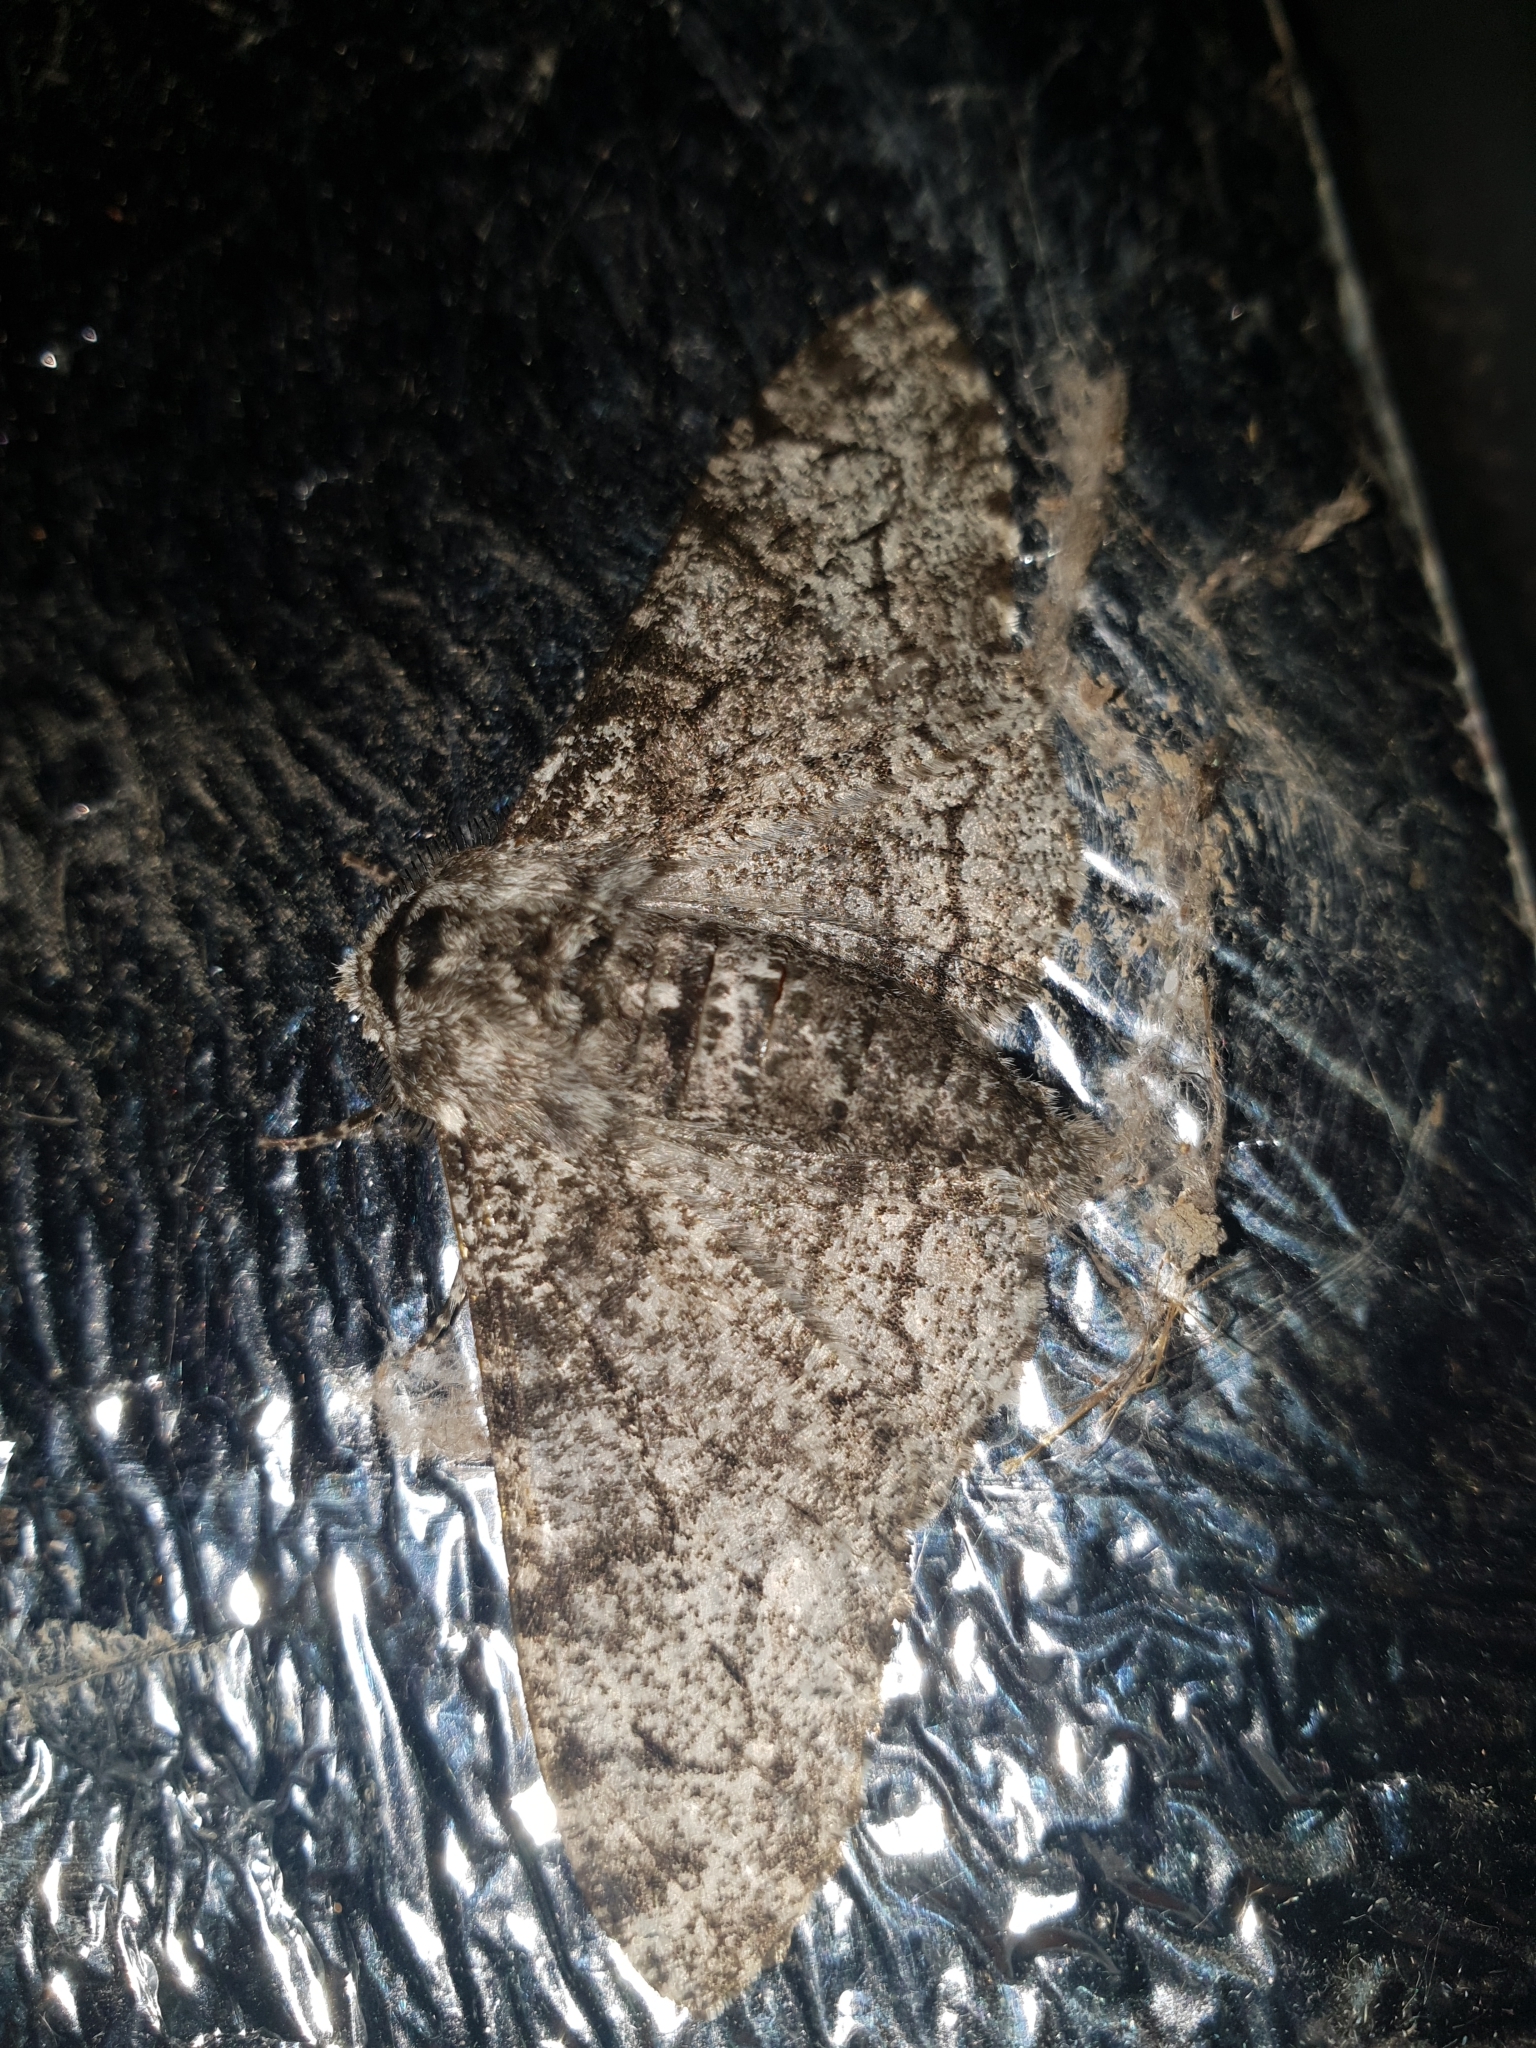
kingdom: Animalia
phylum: Arthropoda
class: Insecta
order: Lepidoptera
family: Geometridae
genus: Biston
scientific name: Biston betularia
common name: Peppered moth
